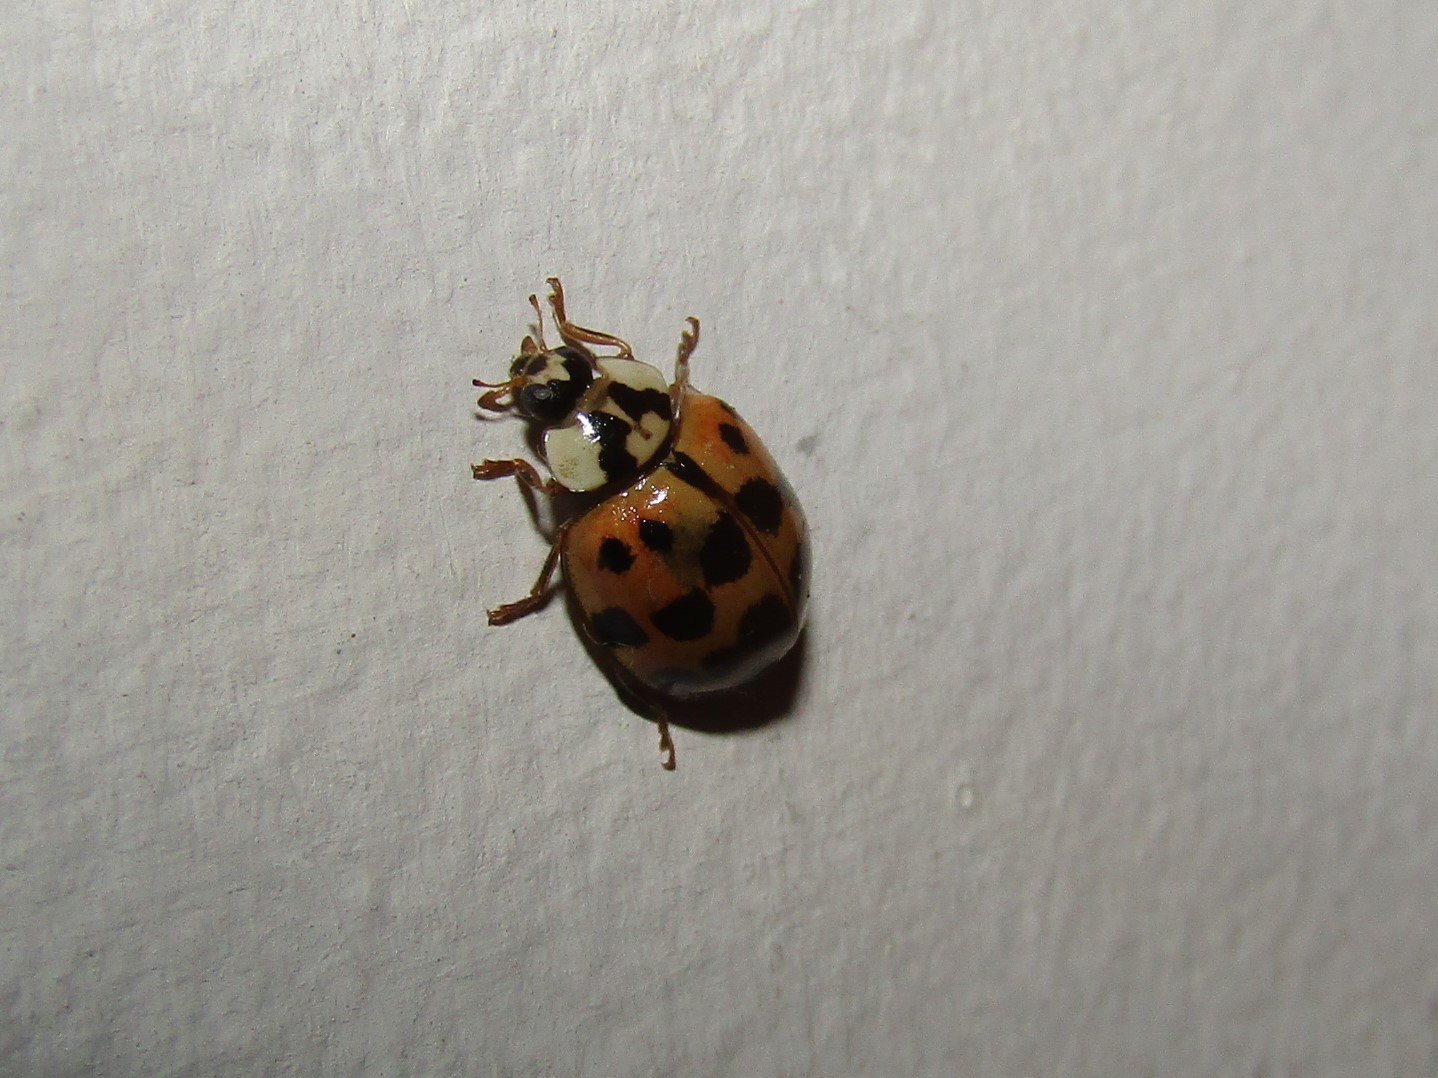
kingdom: Animalia
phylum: Arthropoda
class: Insecta
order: Coleoptera
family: Coccinellidae
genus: Harmonia
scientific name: Harmonia axyridis
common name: Harlequin ladybird
